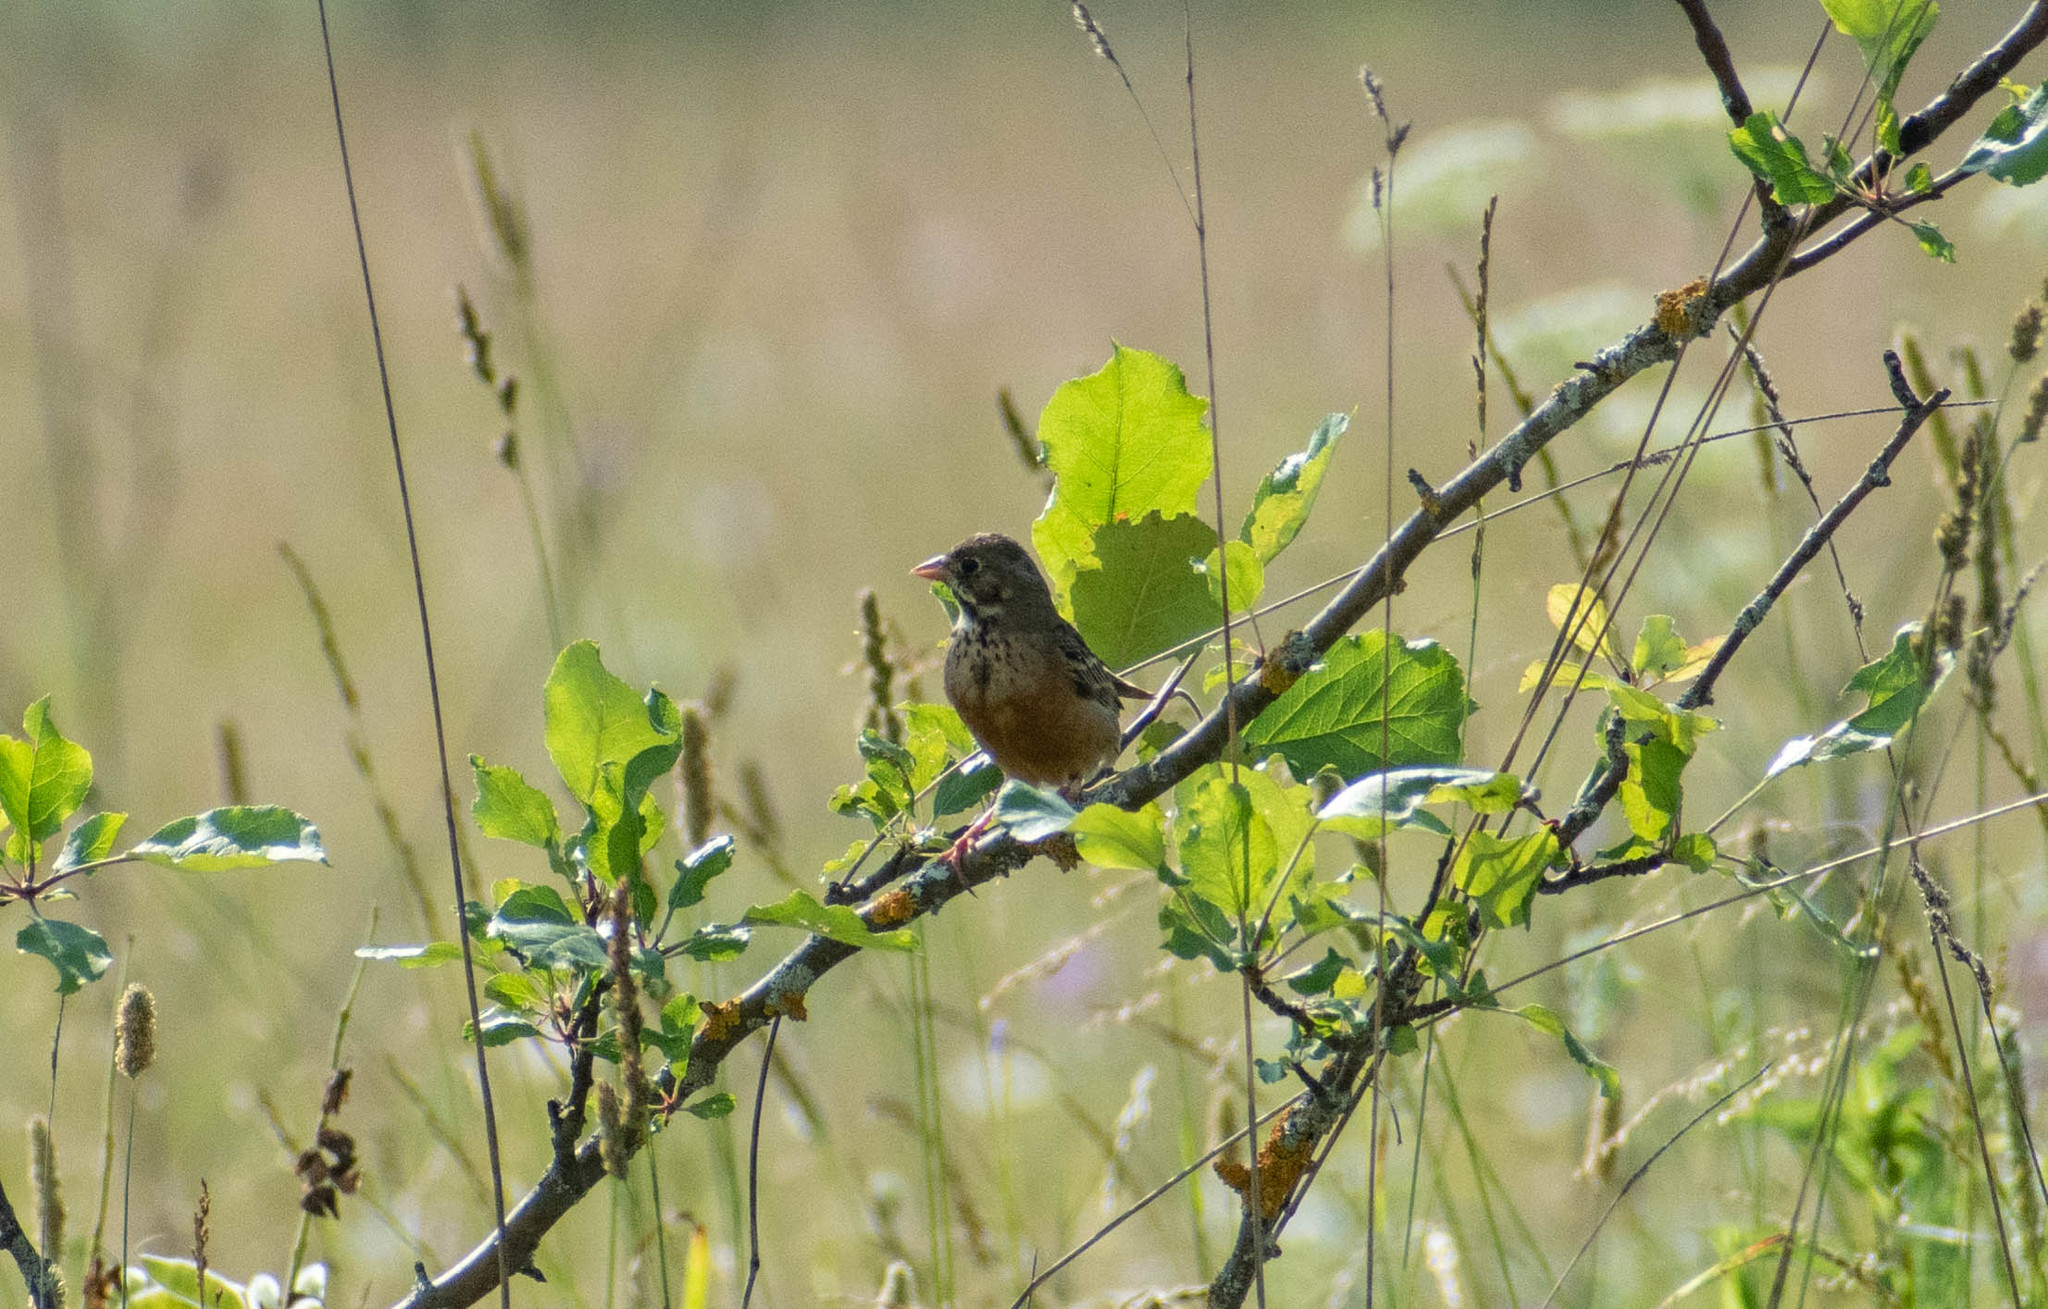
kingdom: Animalia
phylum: Chordata
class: Aves
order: Passeriformes
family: Emberizidae
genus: Emberiza
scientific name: Emberiza hortulana
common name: Ortolan bunting
